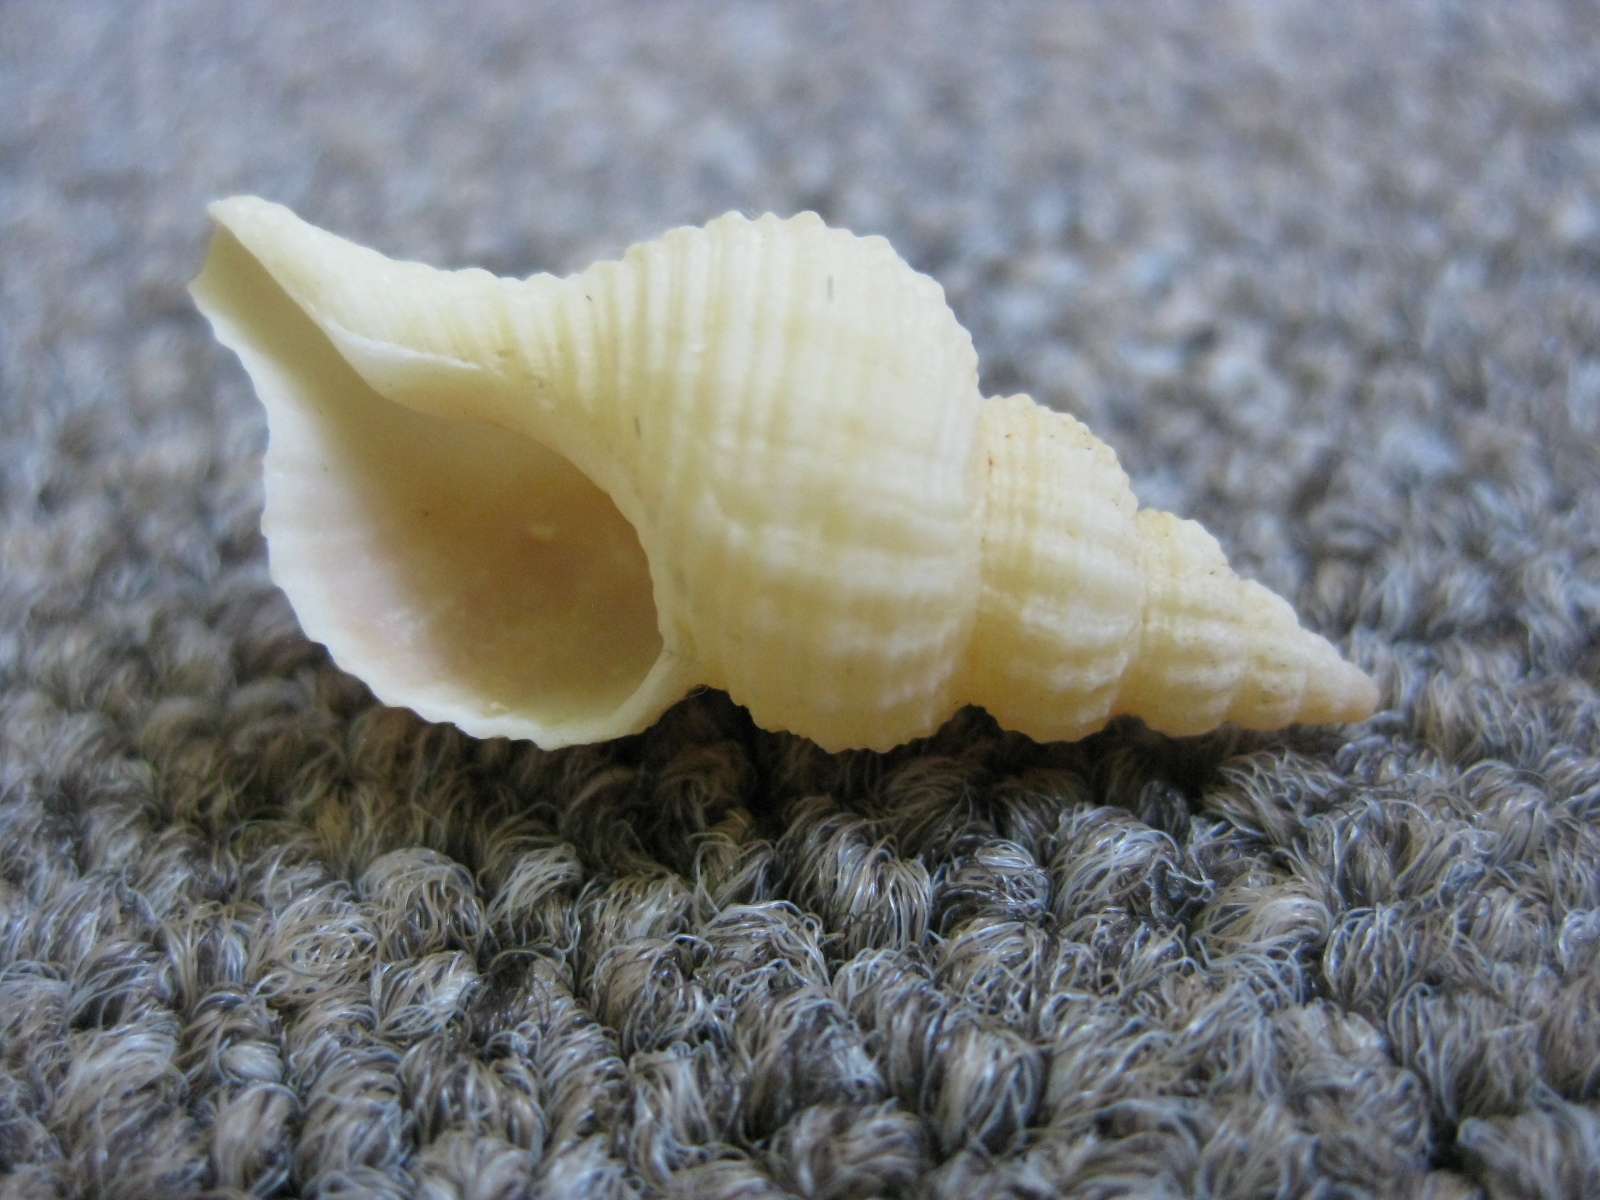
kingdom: Animalia
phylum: Mollusca
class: Gastropoda
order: Neogastropoda
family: Fasciolariidae
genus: Glaphyrina
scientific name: Glaphyrina caudata
